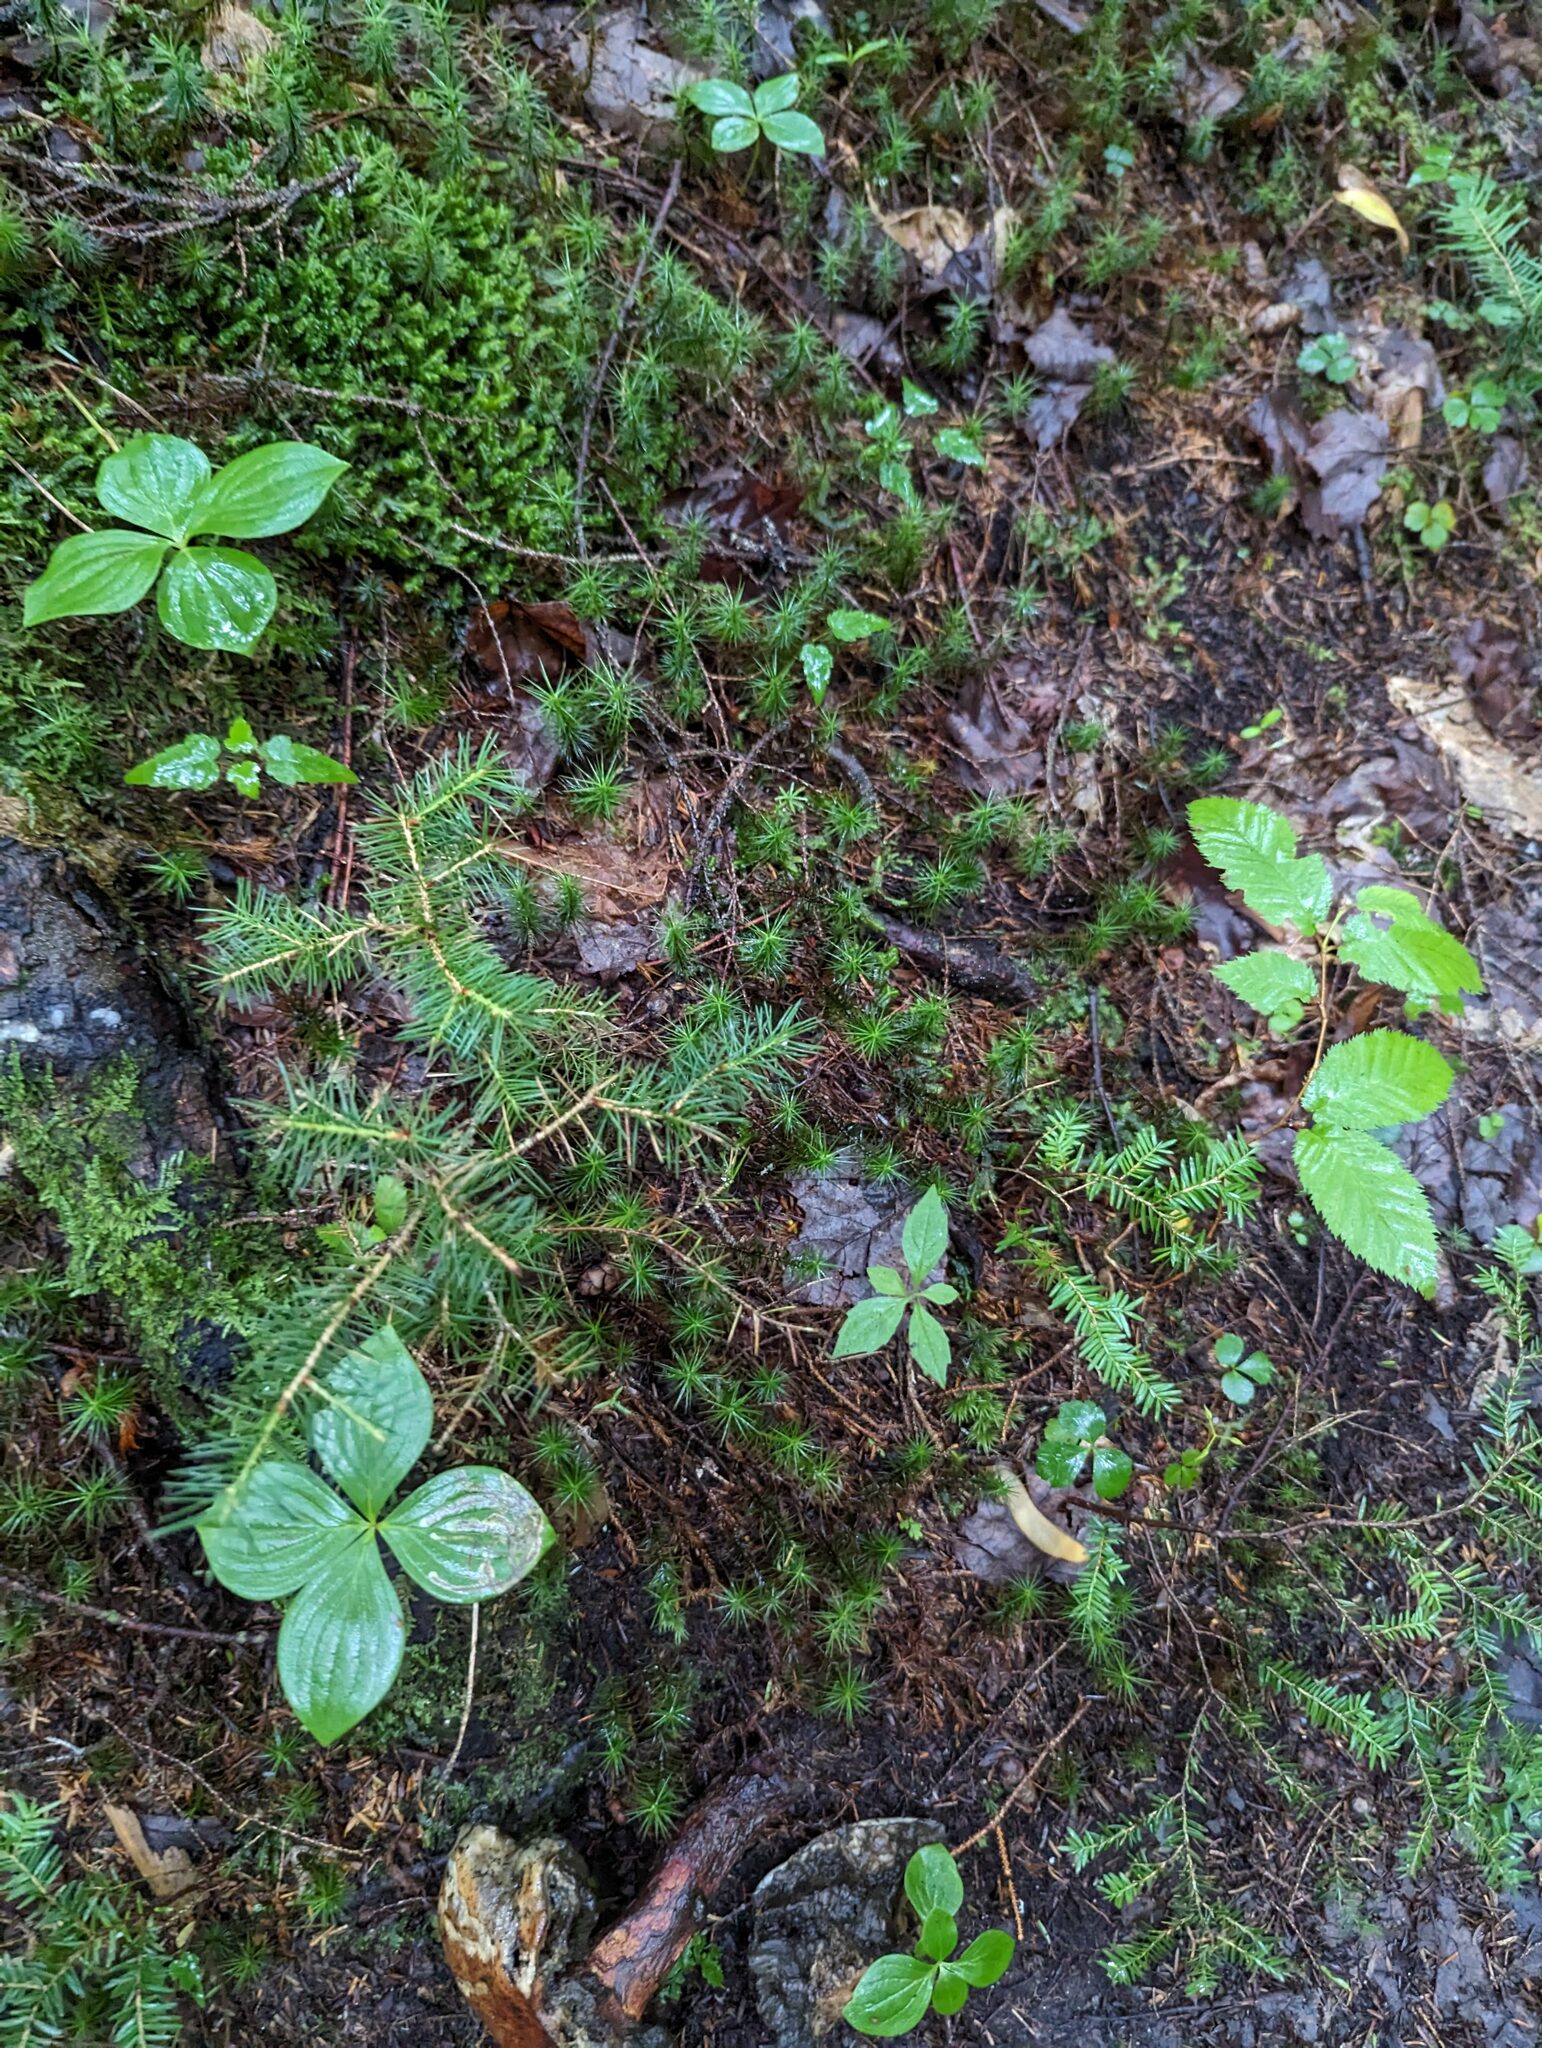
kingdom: Plantae
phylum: Tracheophyta
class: Magnoliopsida
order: Cornales
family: Cornaceae
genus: Cornus
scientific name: Cornus canadensis
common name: Creeping dogwood
